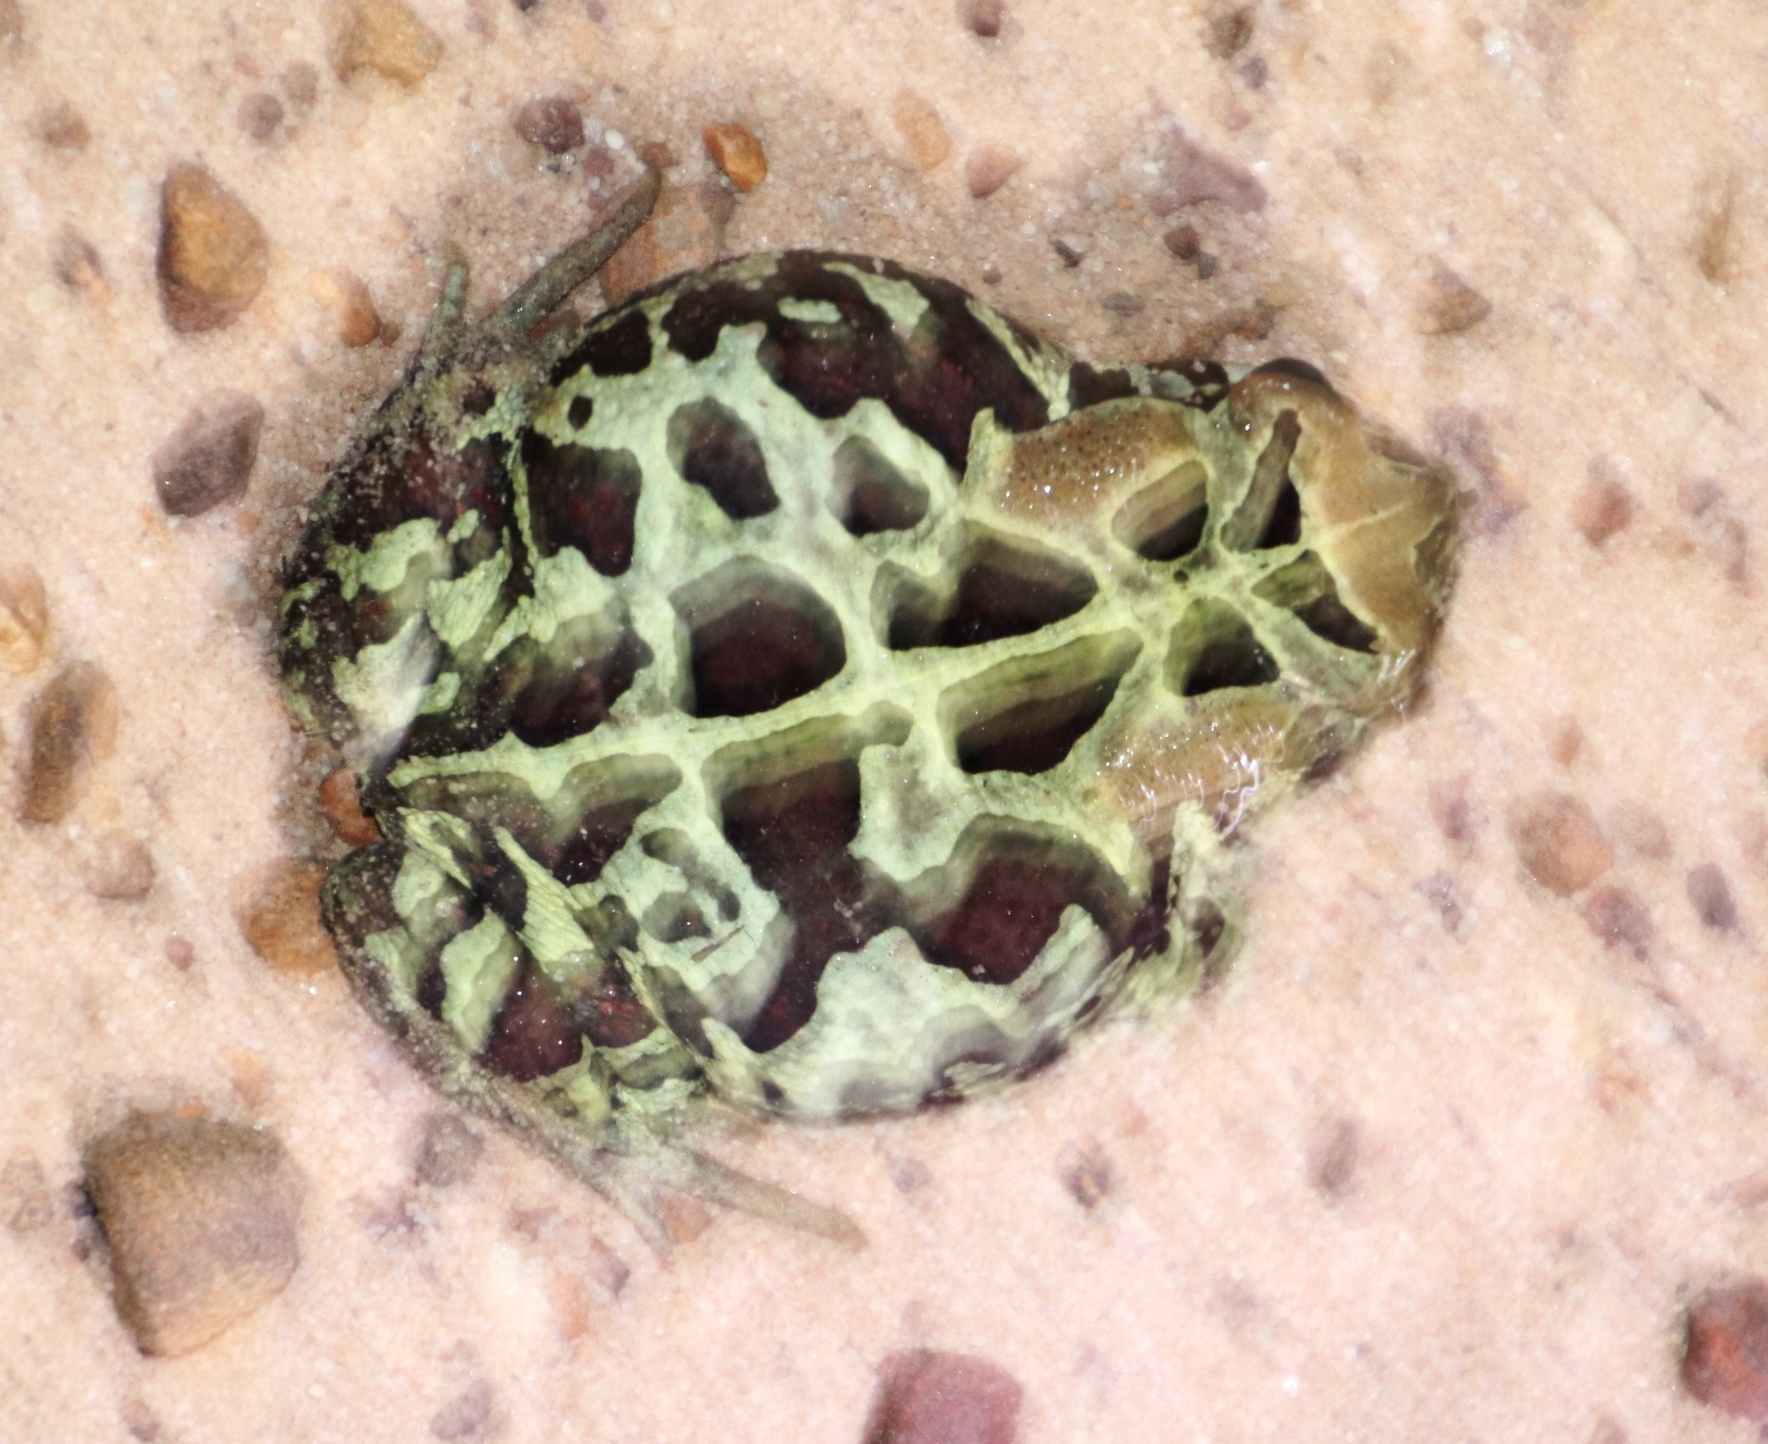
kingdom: Animalia
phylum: Chordata
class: Amphibia
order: Anura
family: Bufonidae
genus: Sclerophrys
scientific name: Sclerophrys pantherina
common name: Panther toad
